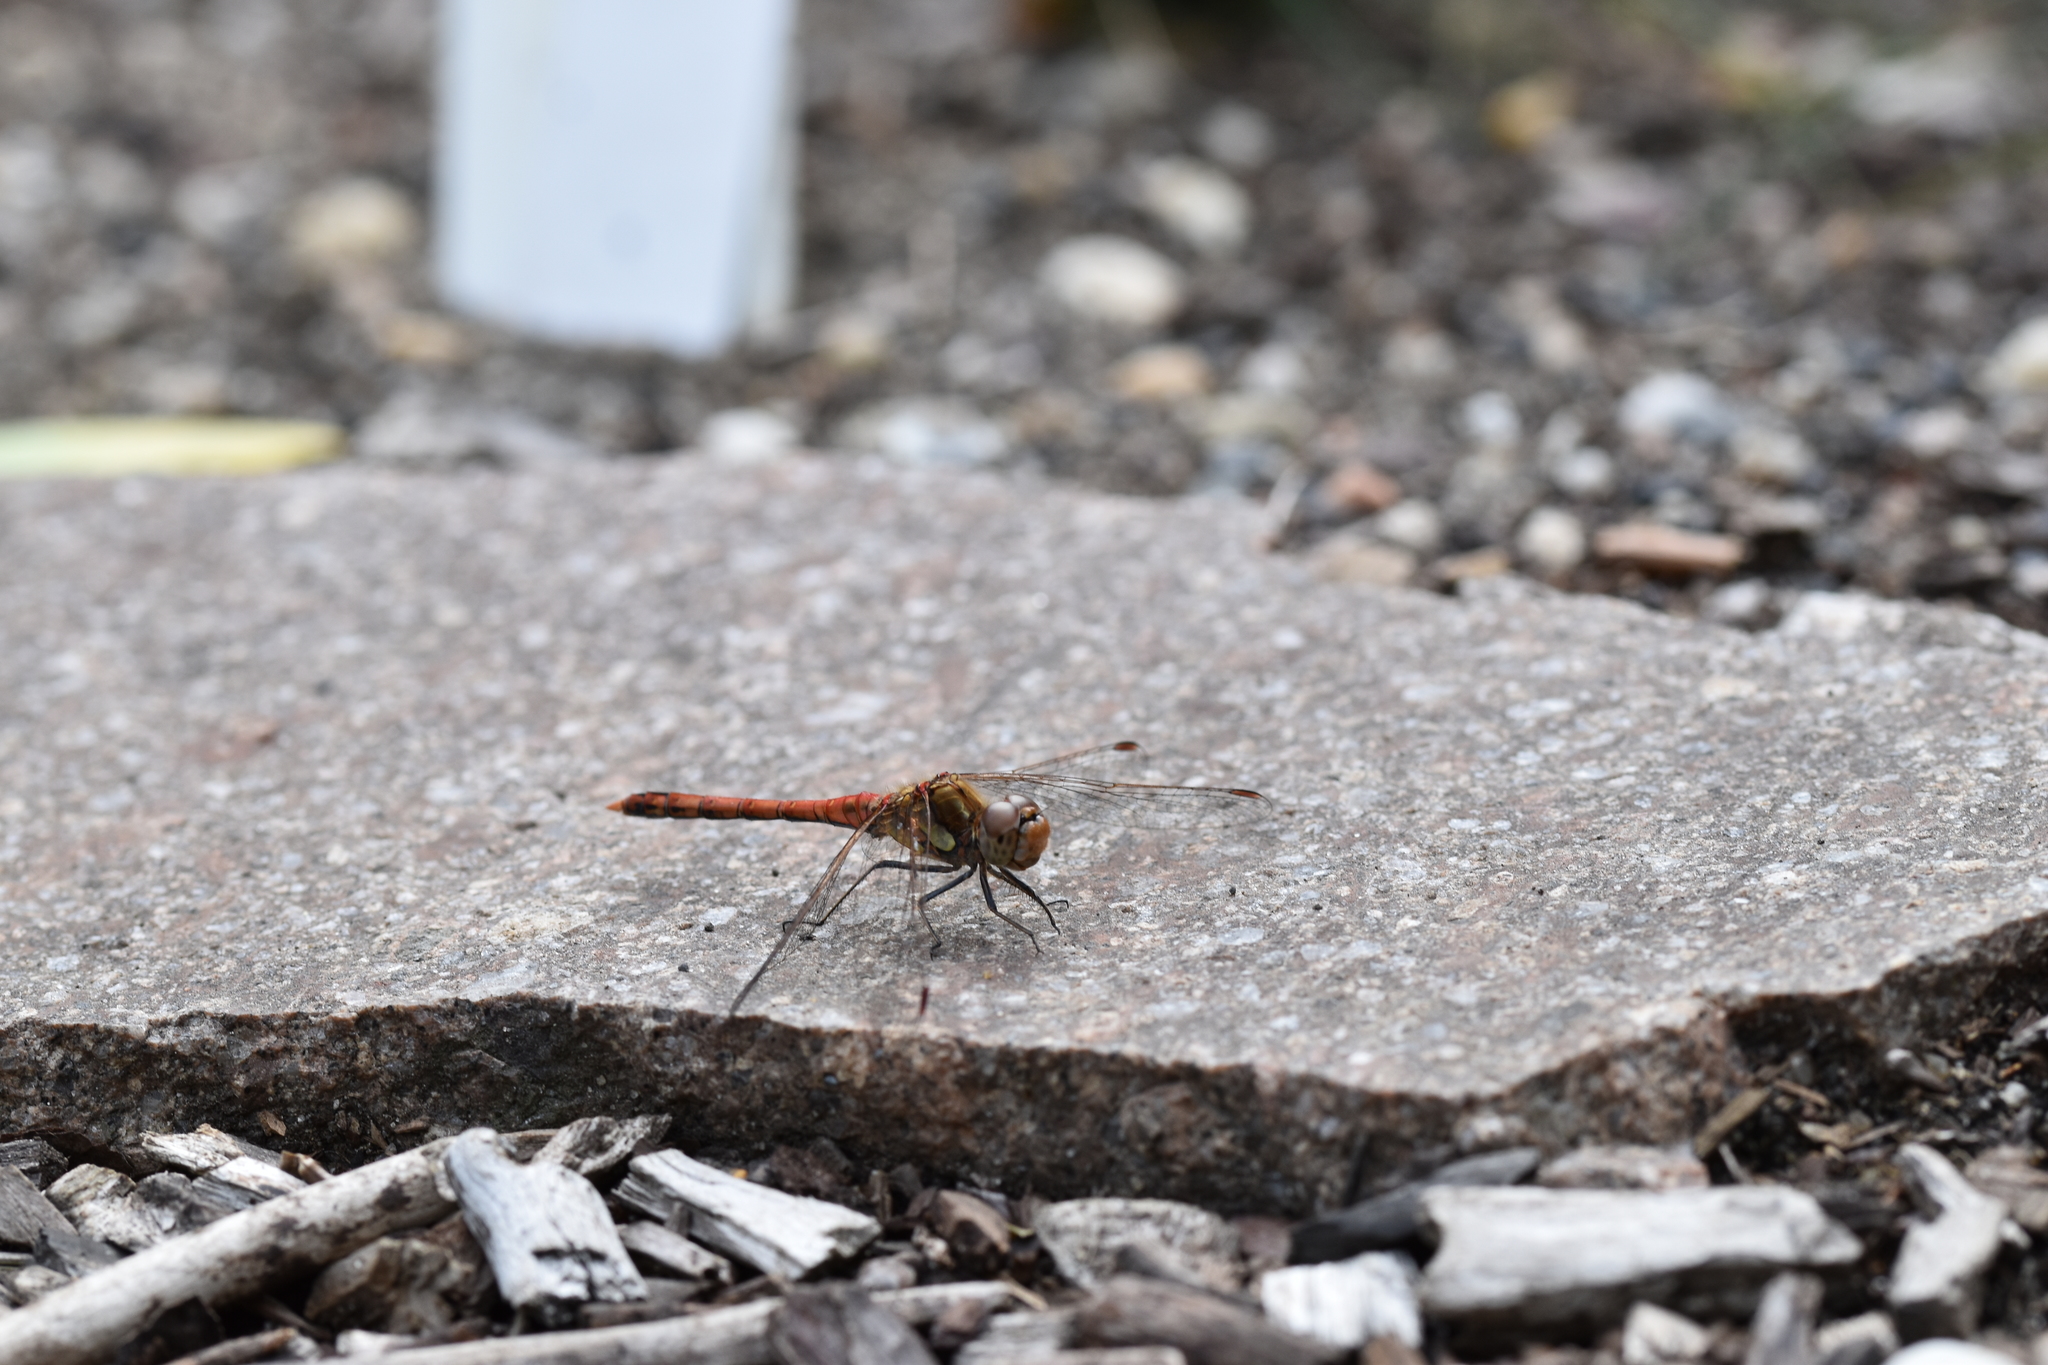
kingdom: Animalia
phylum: Arthropoda
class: Insecta
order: Odonata
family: Libellulidae
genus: Sympetrum
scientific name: Sympetrum striolatum
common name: Common darter
